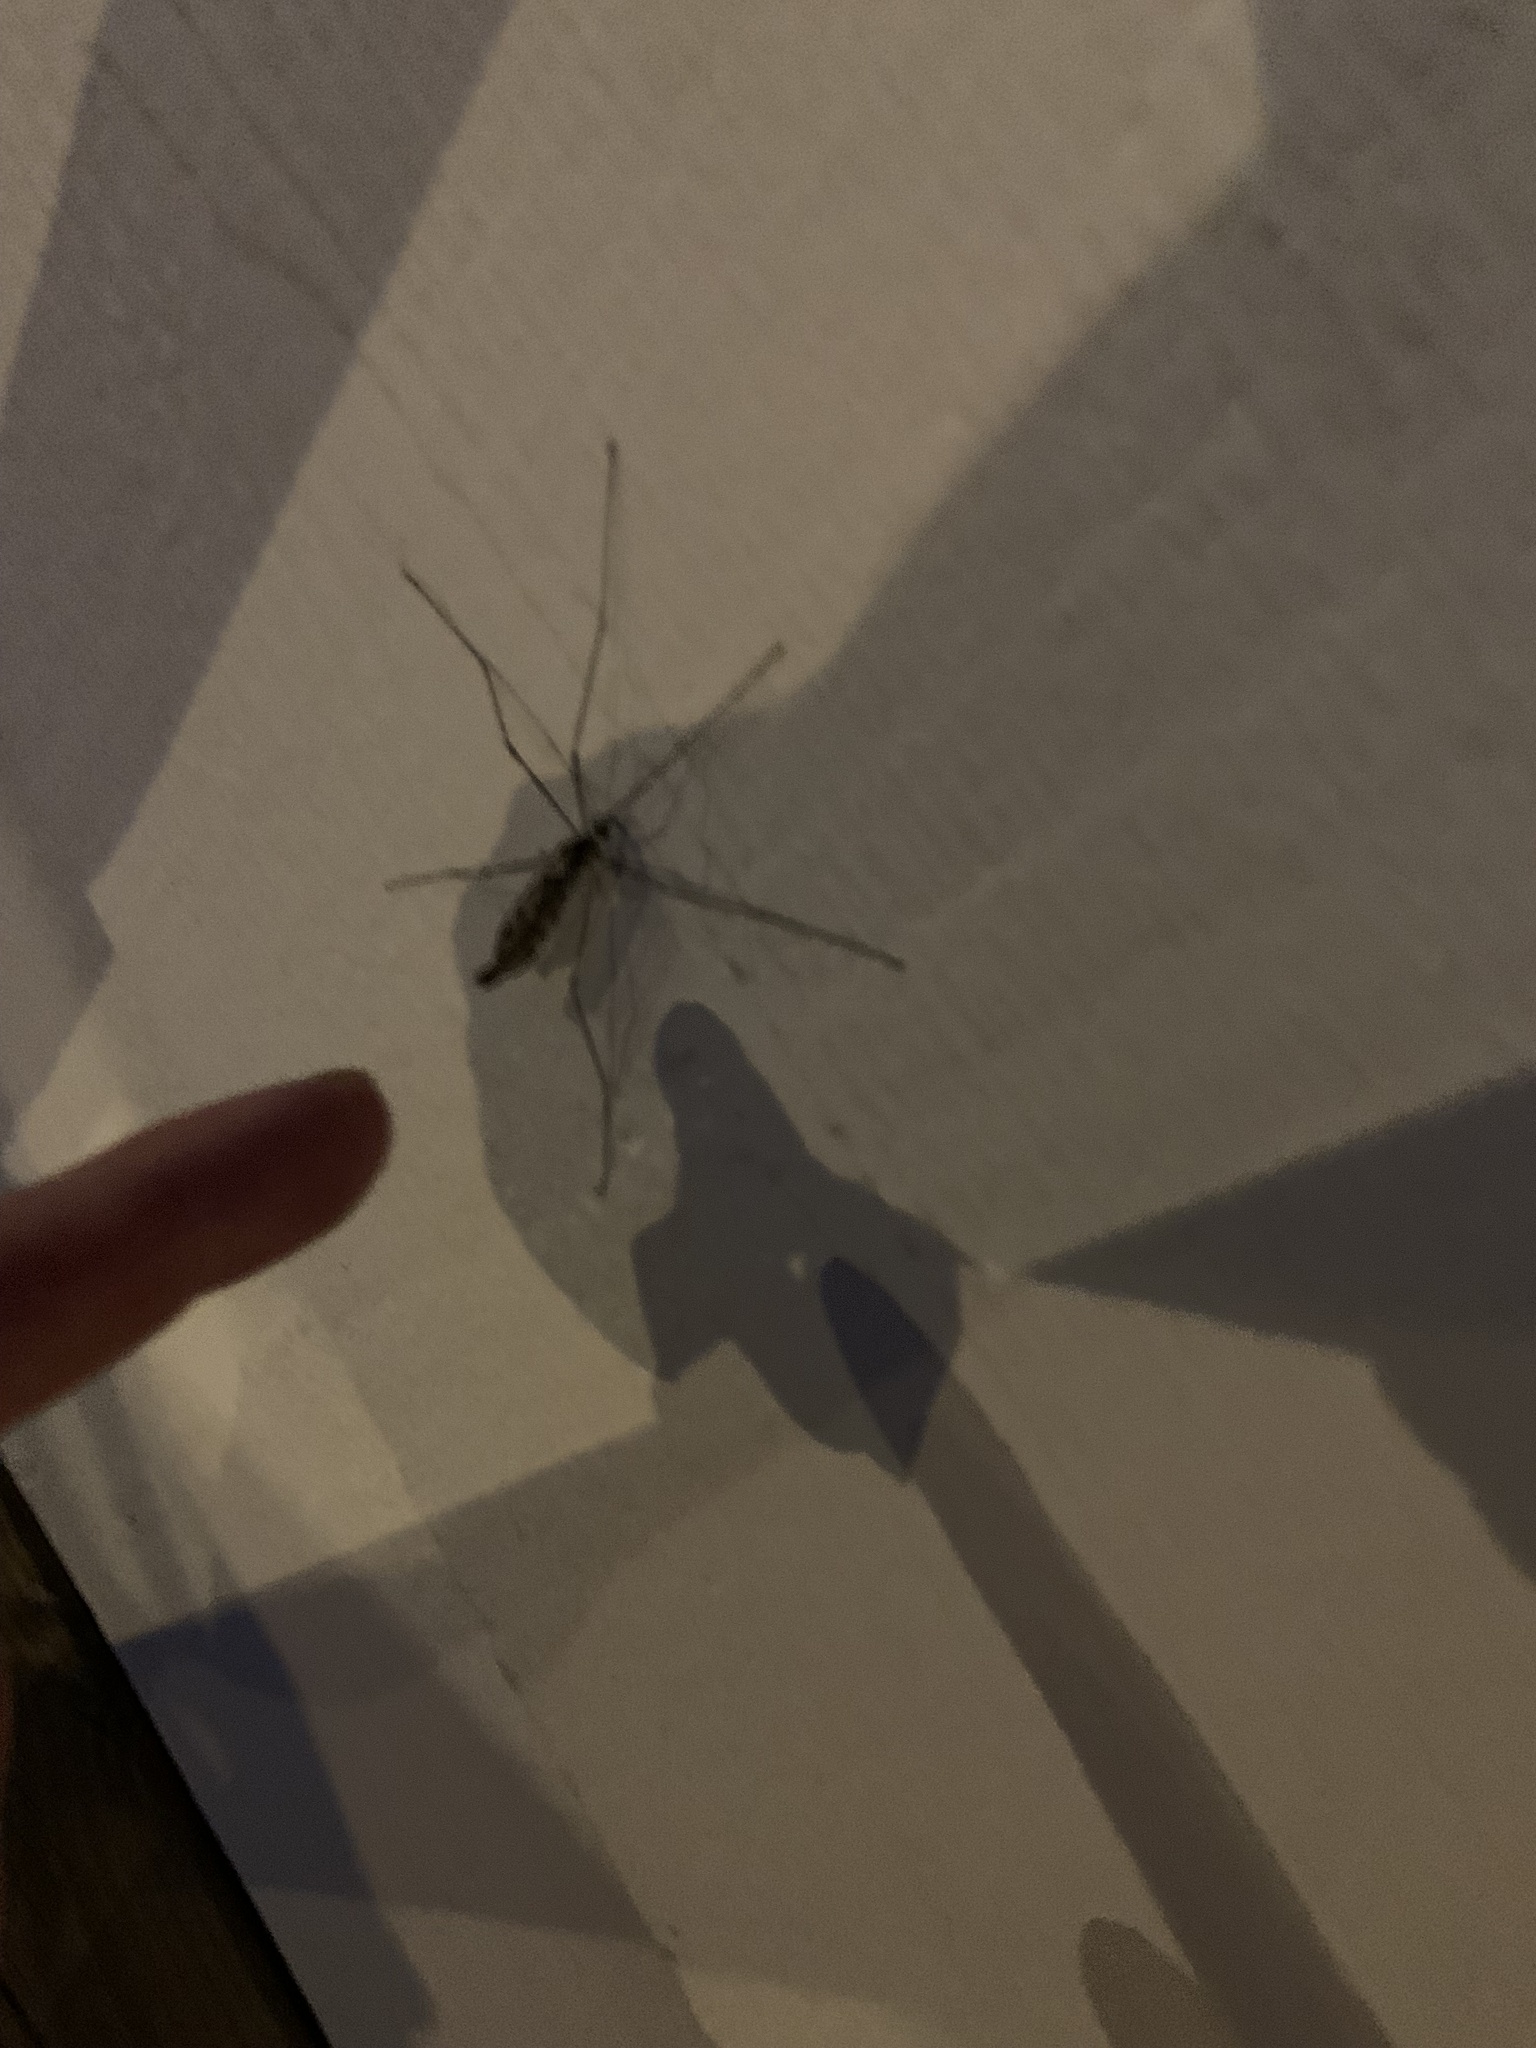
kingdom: Animalia
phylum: Arthropoda
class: Insecta
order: Diptera
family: Tipulidae
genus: Tipula
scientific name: Tipula abdominalis
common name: Giant crane fly
